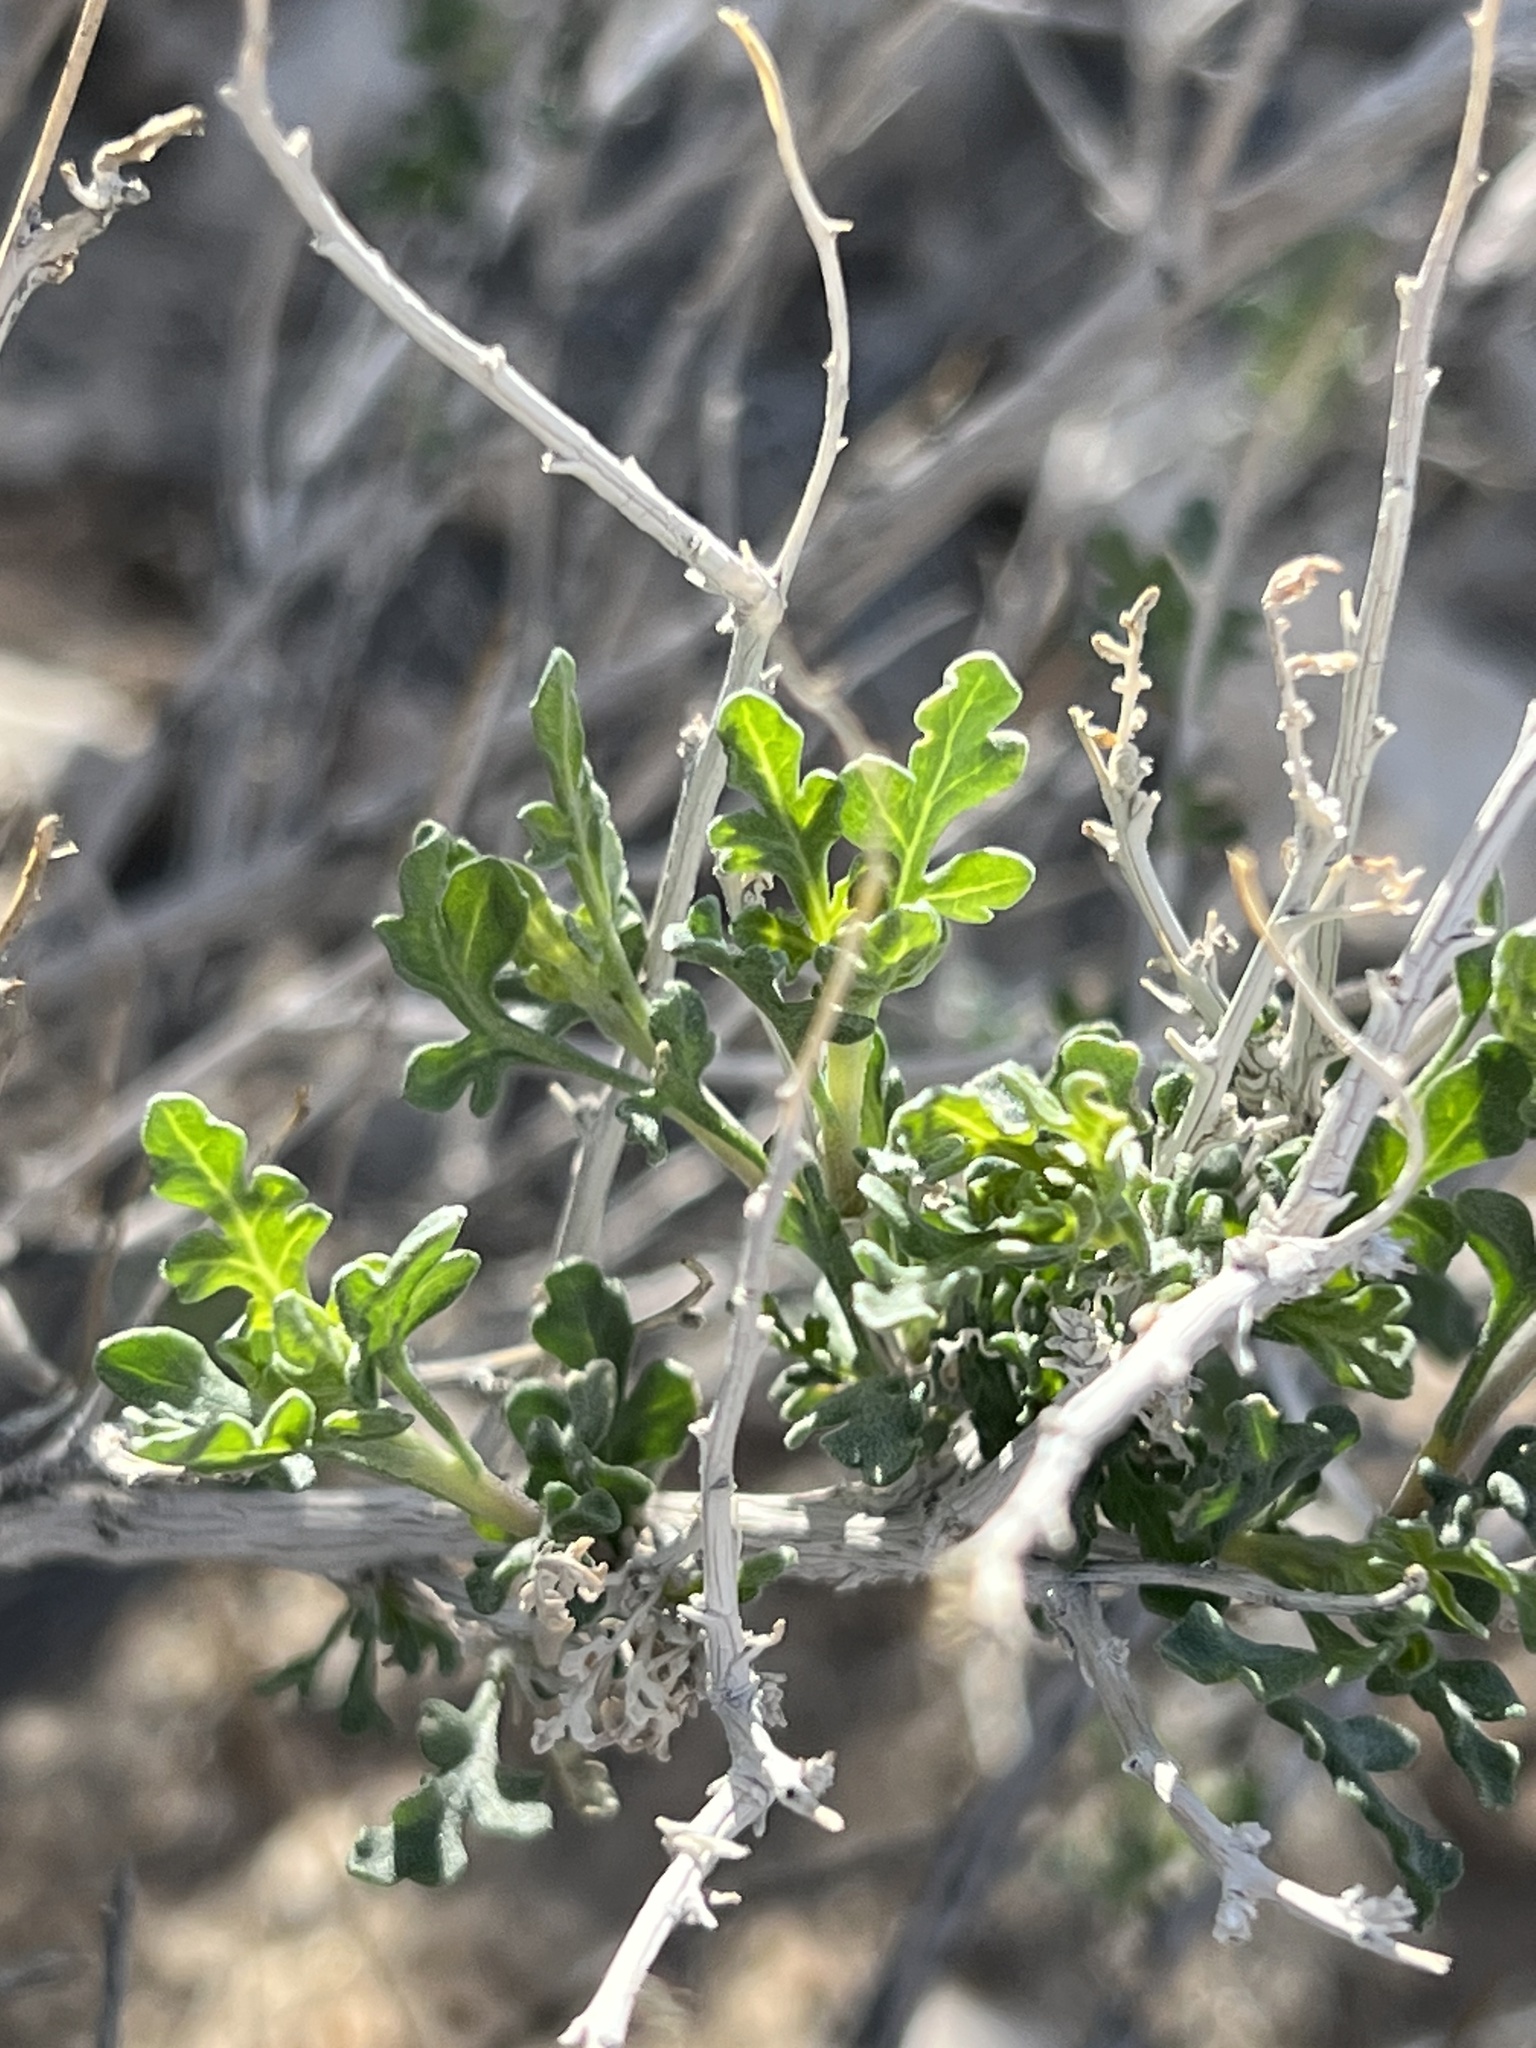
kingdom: Plantae
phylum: Tracheophyta
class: Magnoliopsida
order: Asterales
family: Asteraceae
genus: Ambrosia
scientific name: Ambrosia dumosa
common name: Bur-sage
